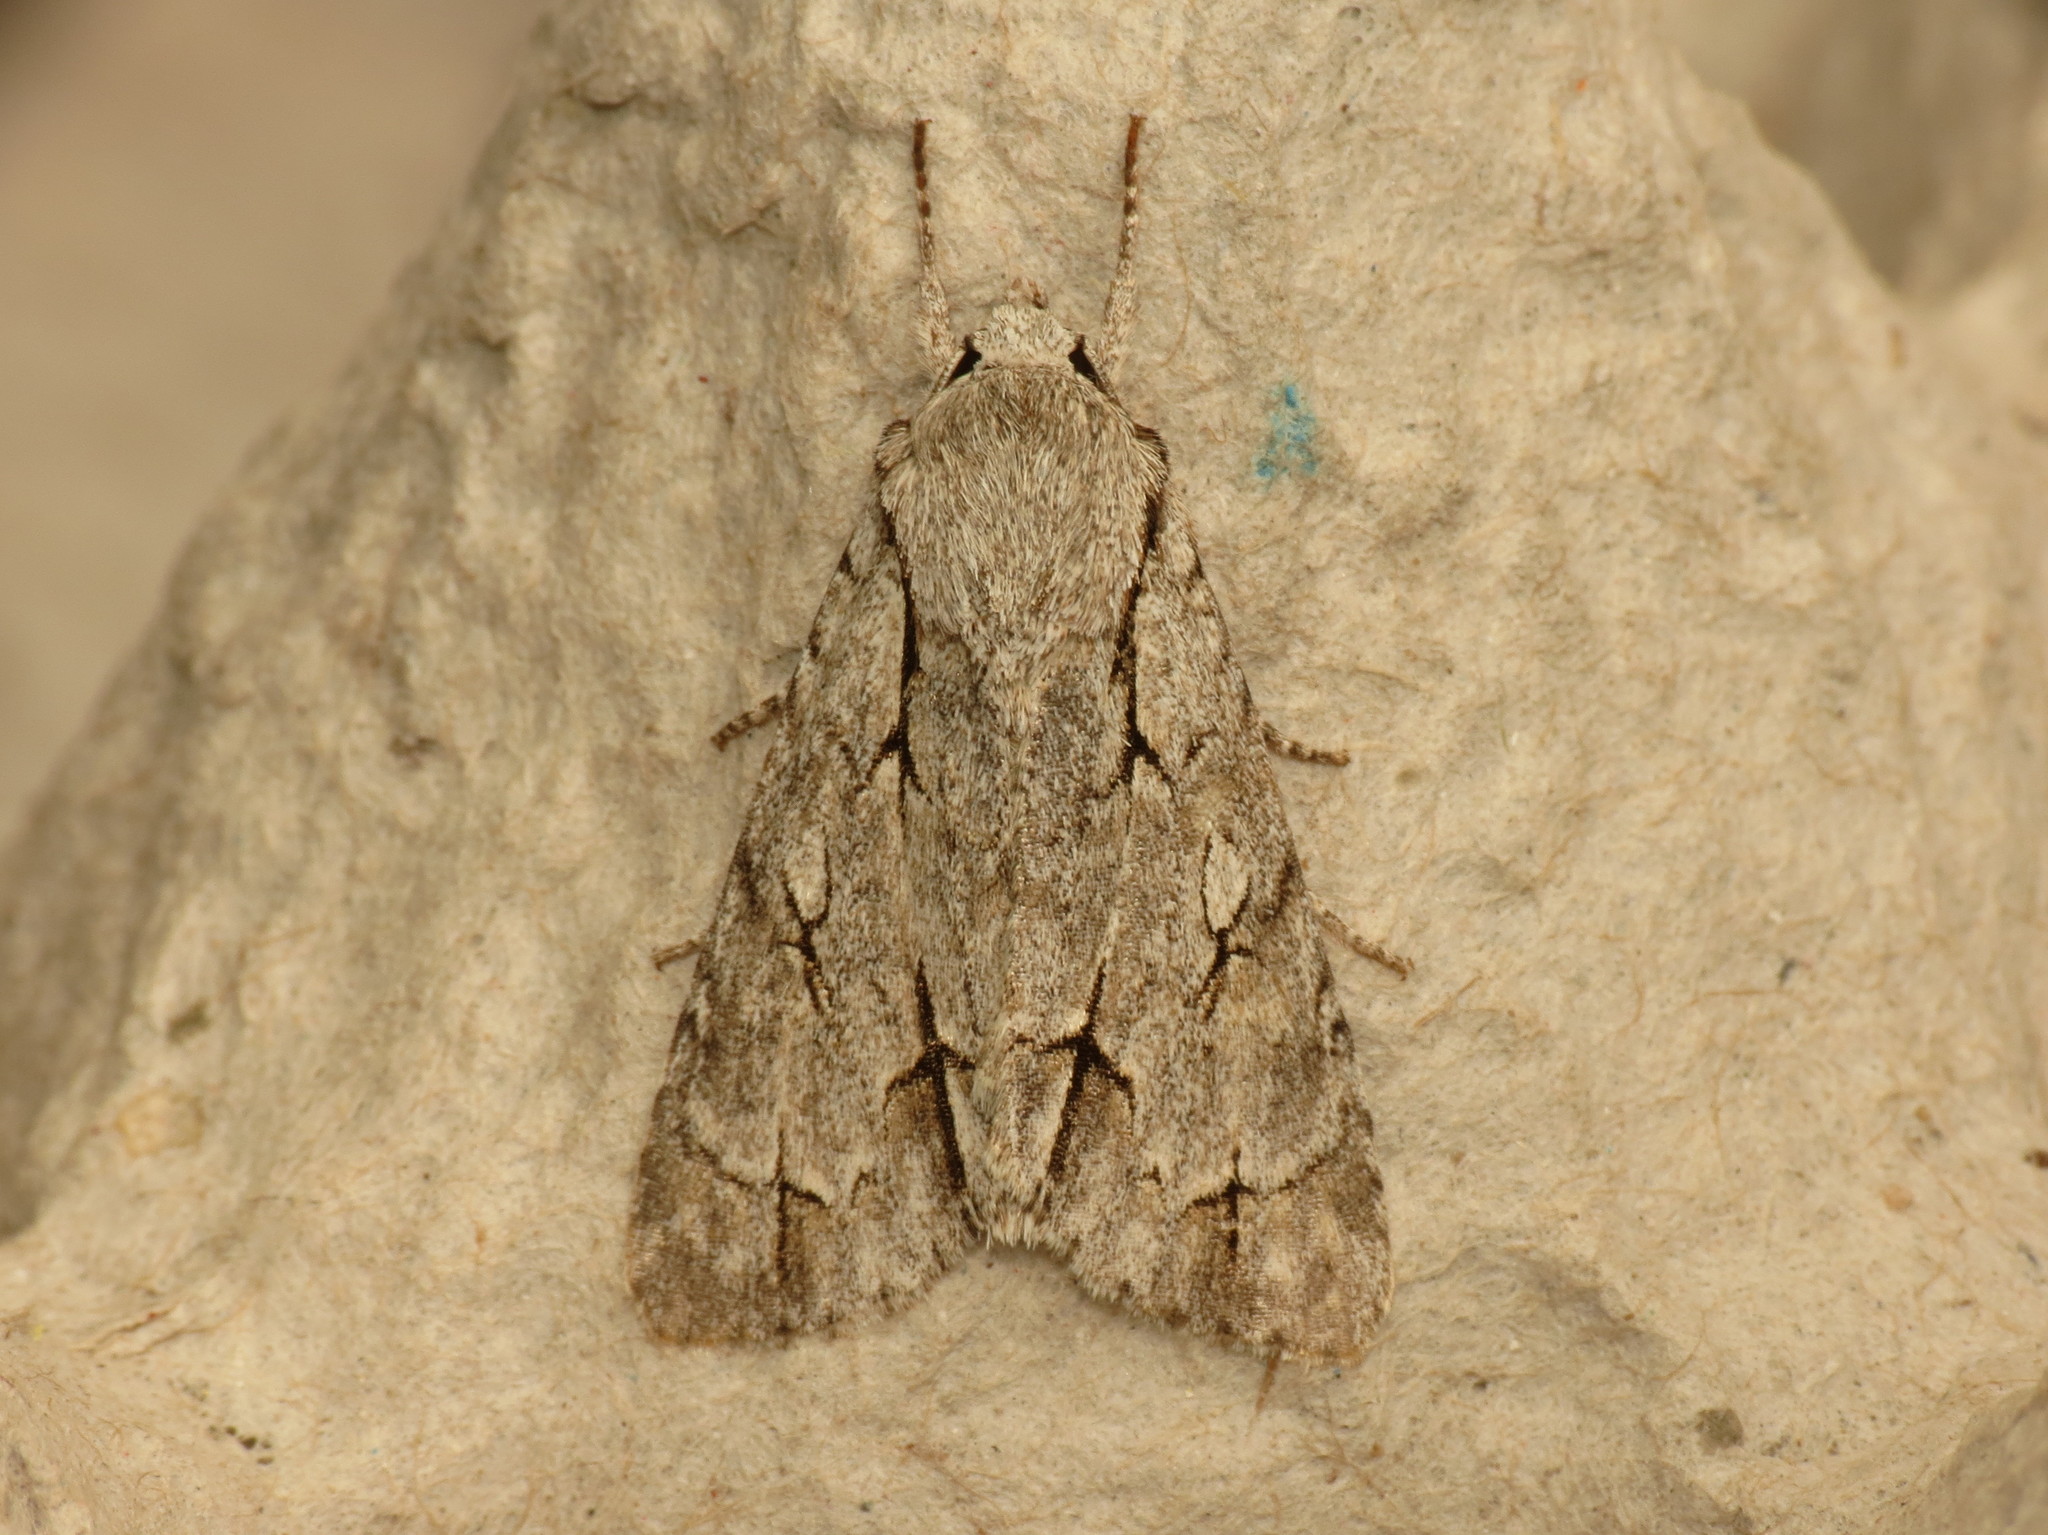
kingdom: Animalia
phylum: Arthropoda
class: Insecta
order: Lepidoptera
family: Noctuidae
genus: Acronicta
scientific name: Acronicta psi
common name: Grey dagger
